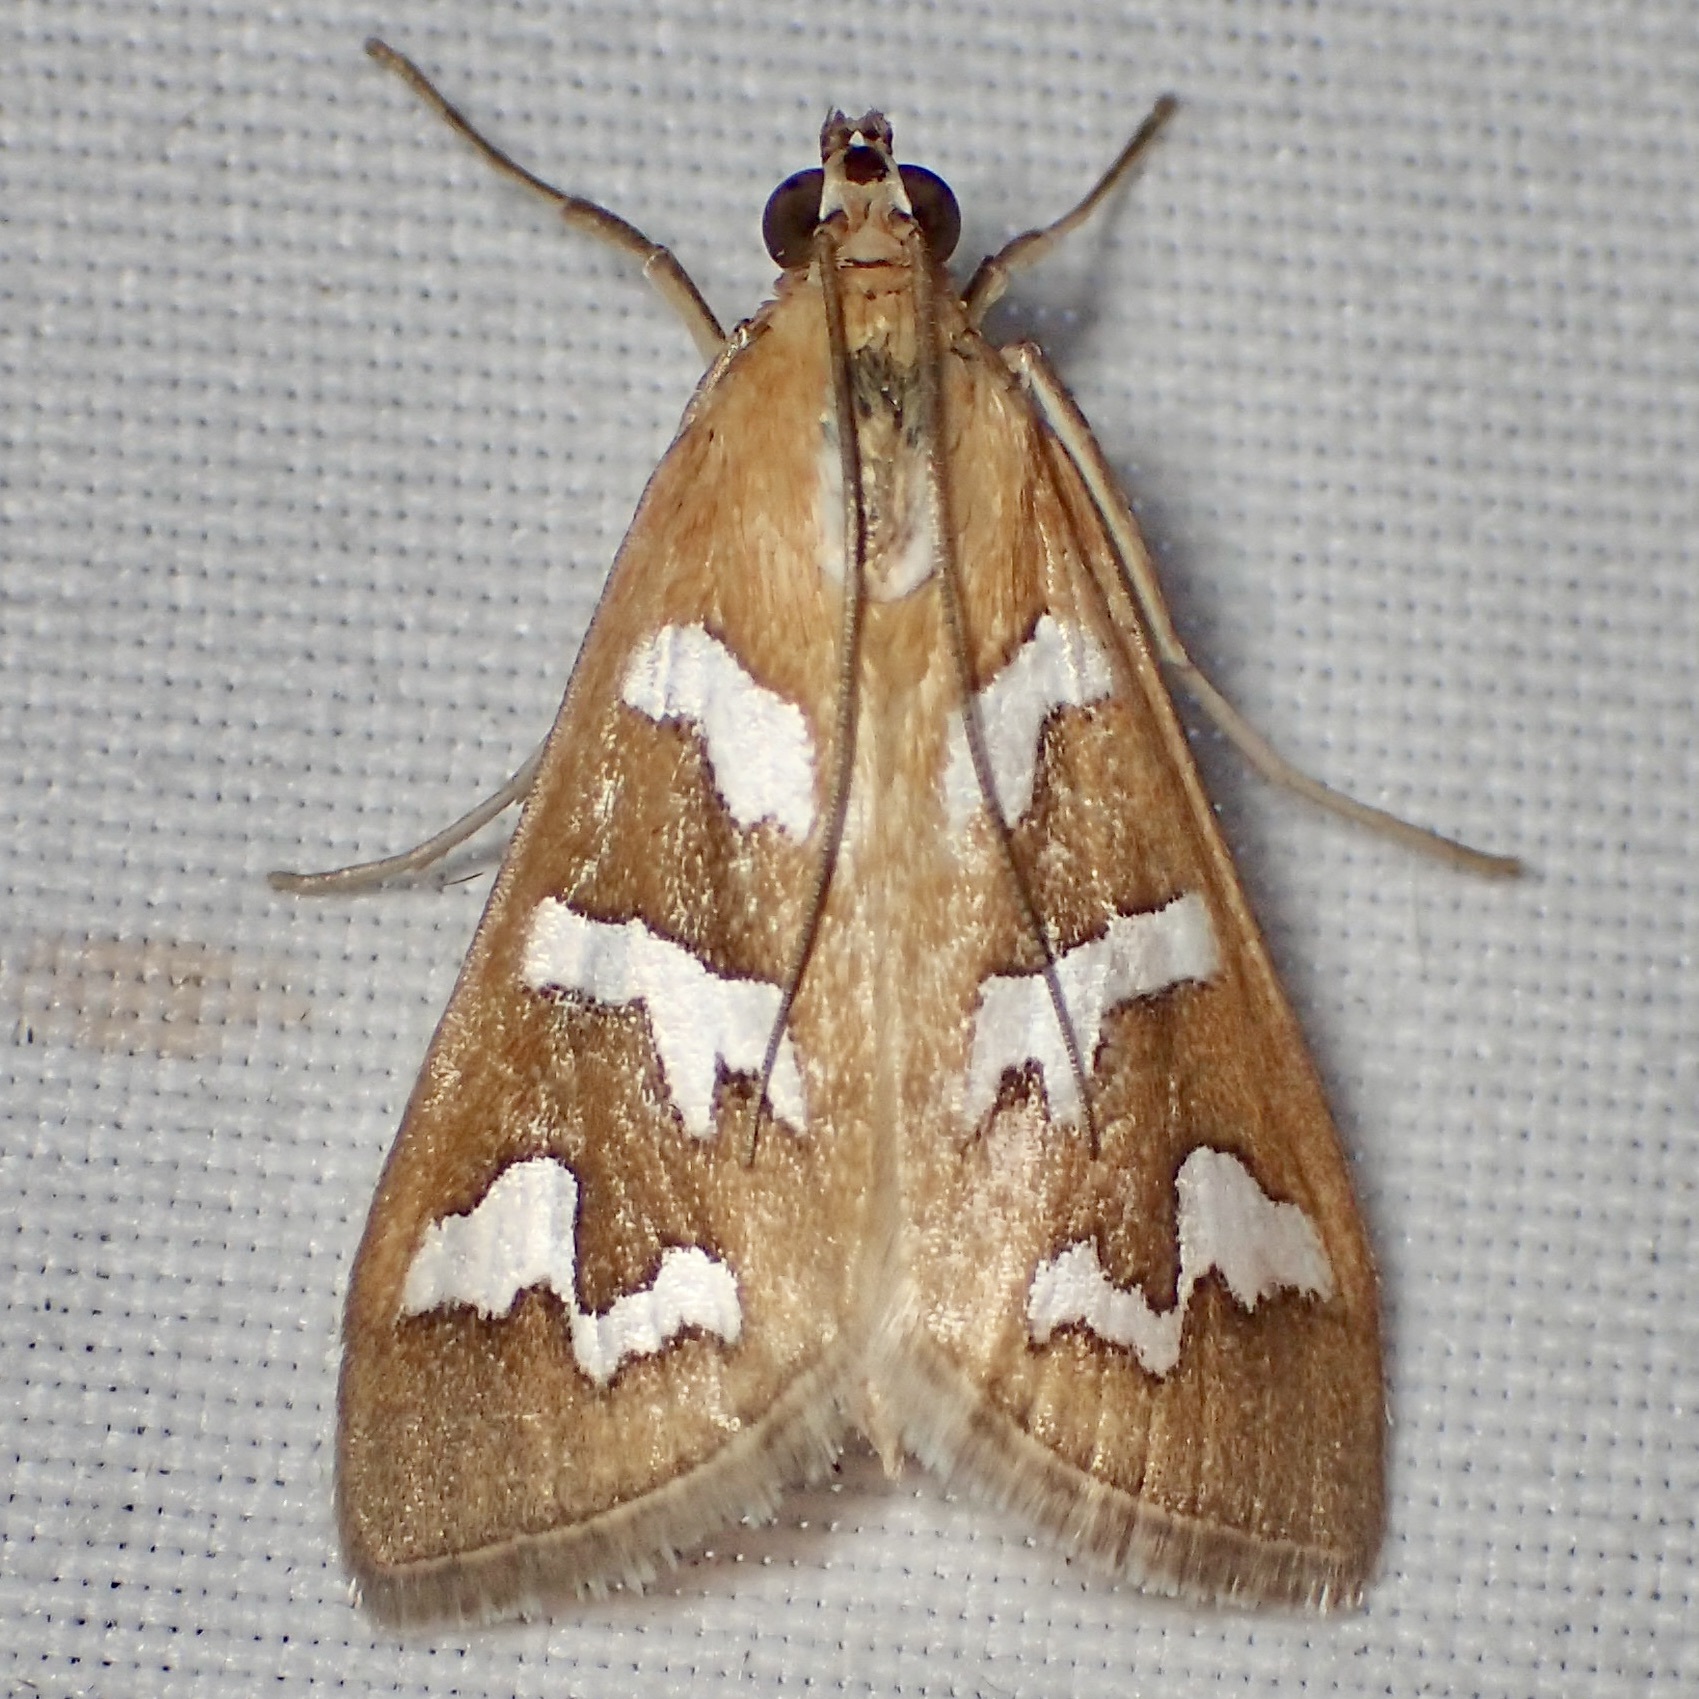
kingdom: Animalia
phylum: Arthropoda
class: Insecta
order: Lepidoptera
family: Crambidae
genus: Diastictis
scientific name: Diastictis fracturalis
